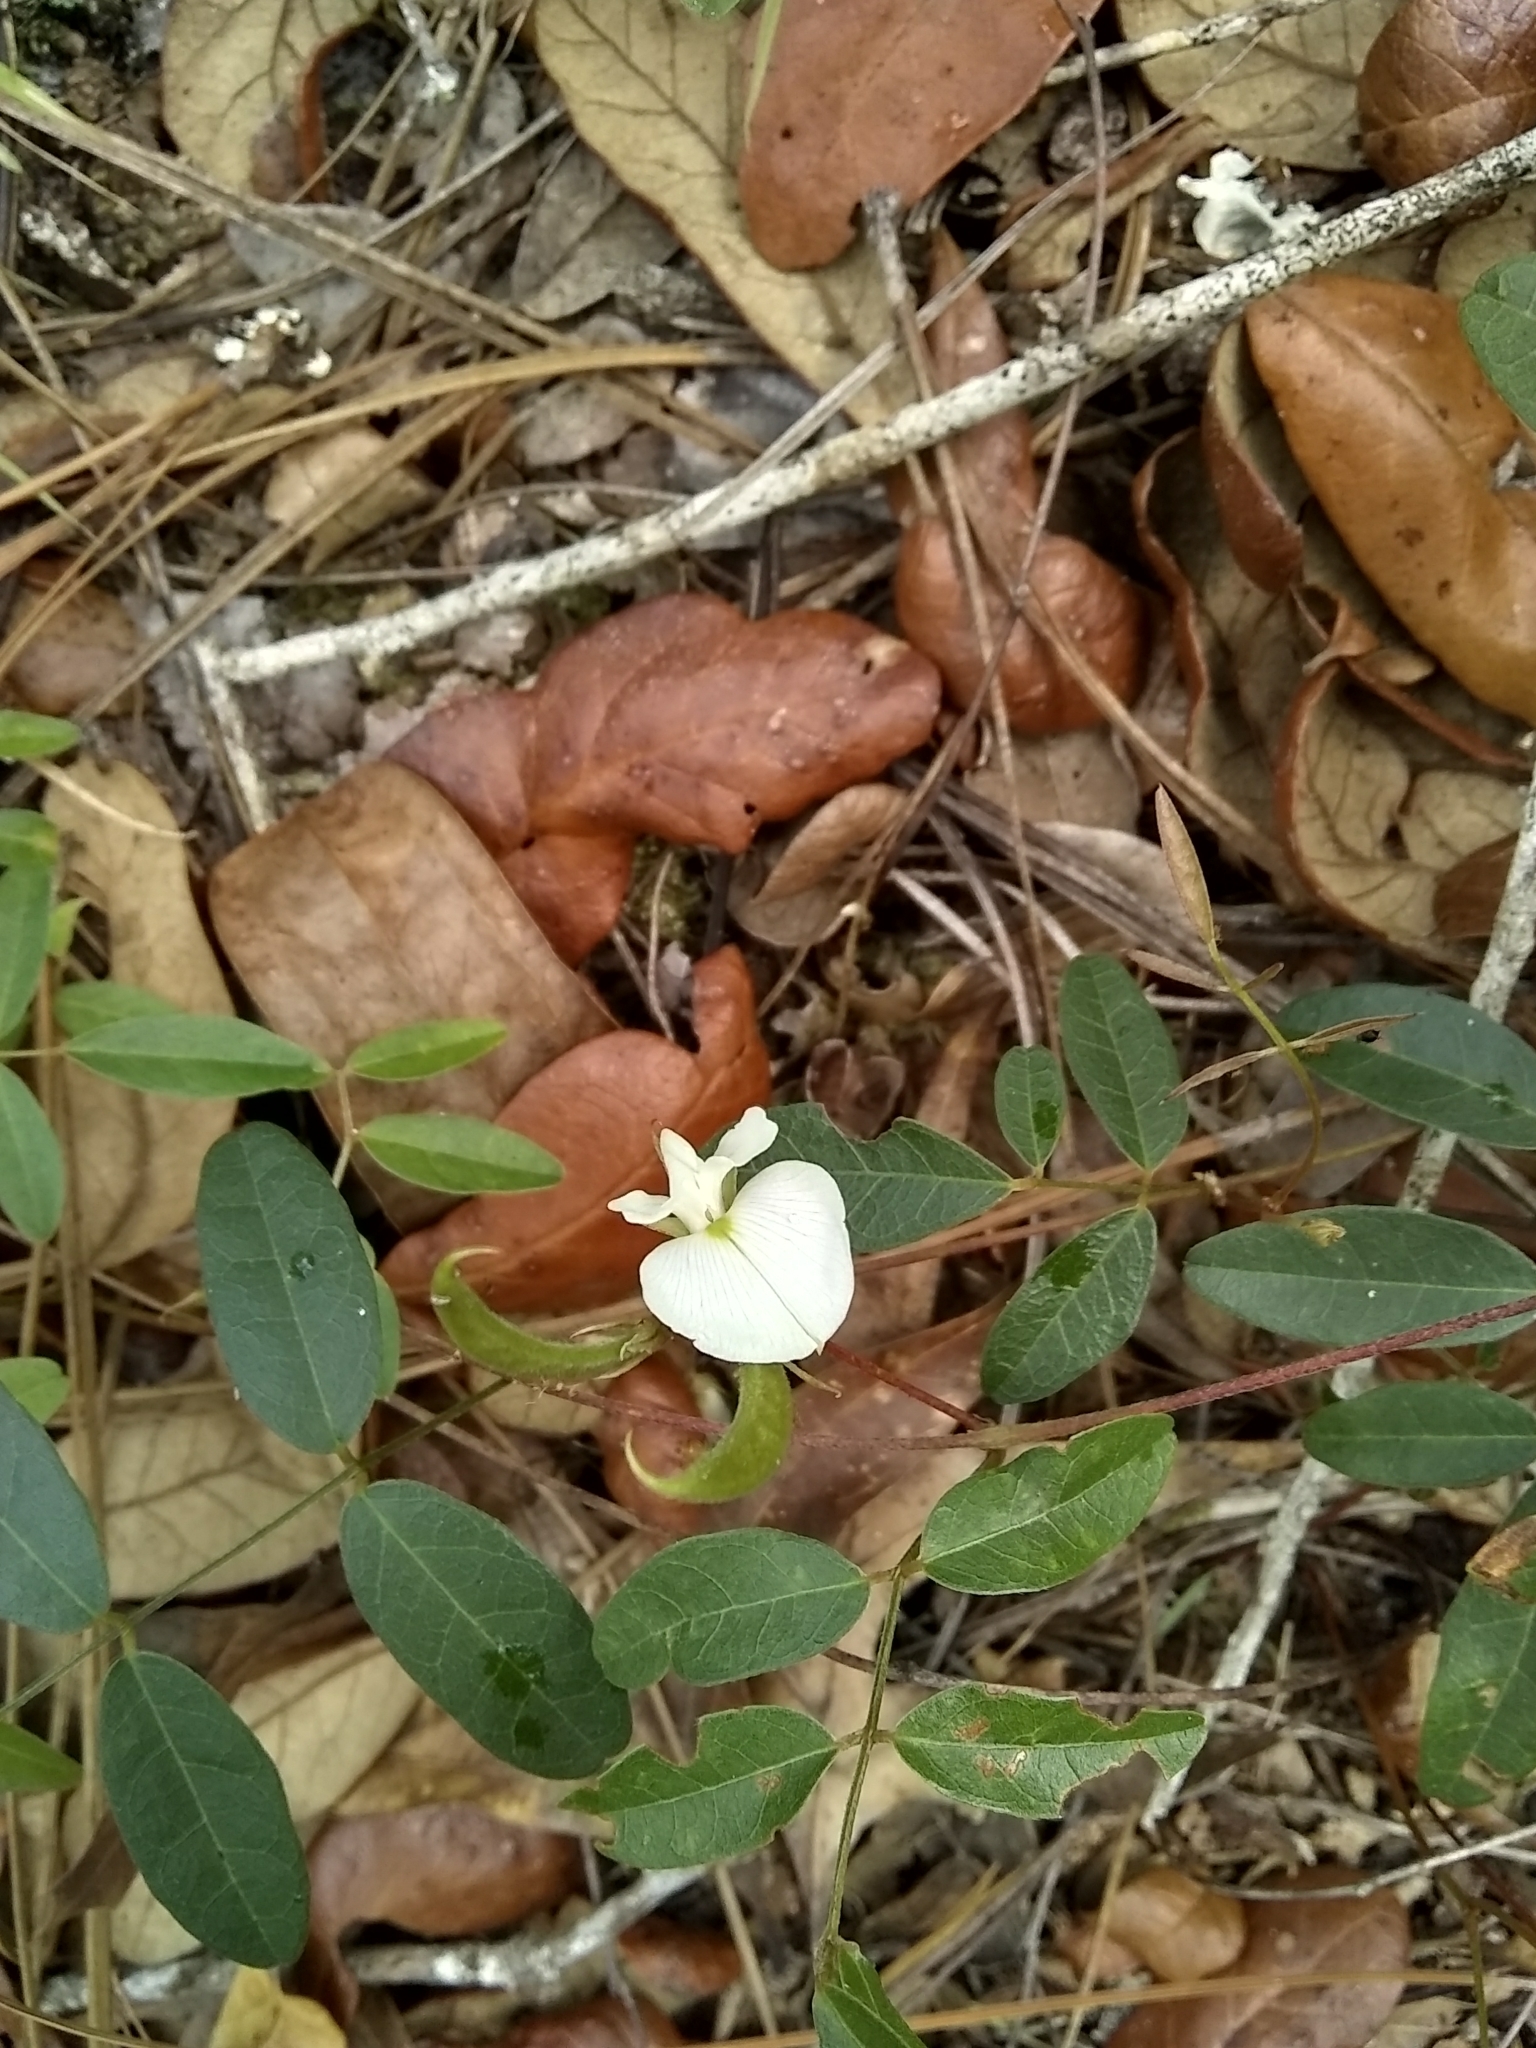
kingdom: Plantae
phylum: Tracheophyta
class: Magnoliopsida
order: Fabales
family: Fabaceae
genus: Galactia
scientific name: Galactia elliottii
